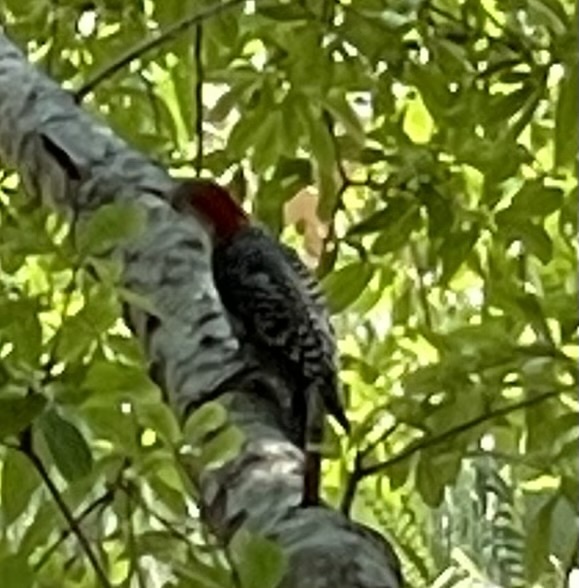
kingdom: Animalia
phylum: Chordata
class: Aves
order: Piciformes
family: Picidae
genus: Melanerpes
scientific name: Melanerpes carolinus
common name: Red-bellied woodpecker
